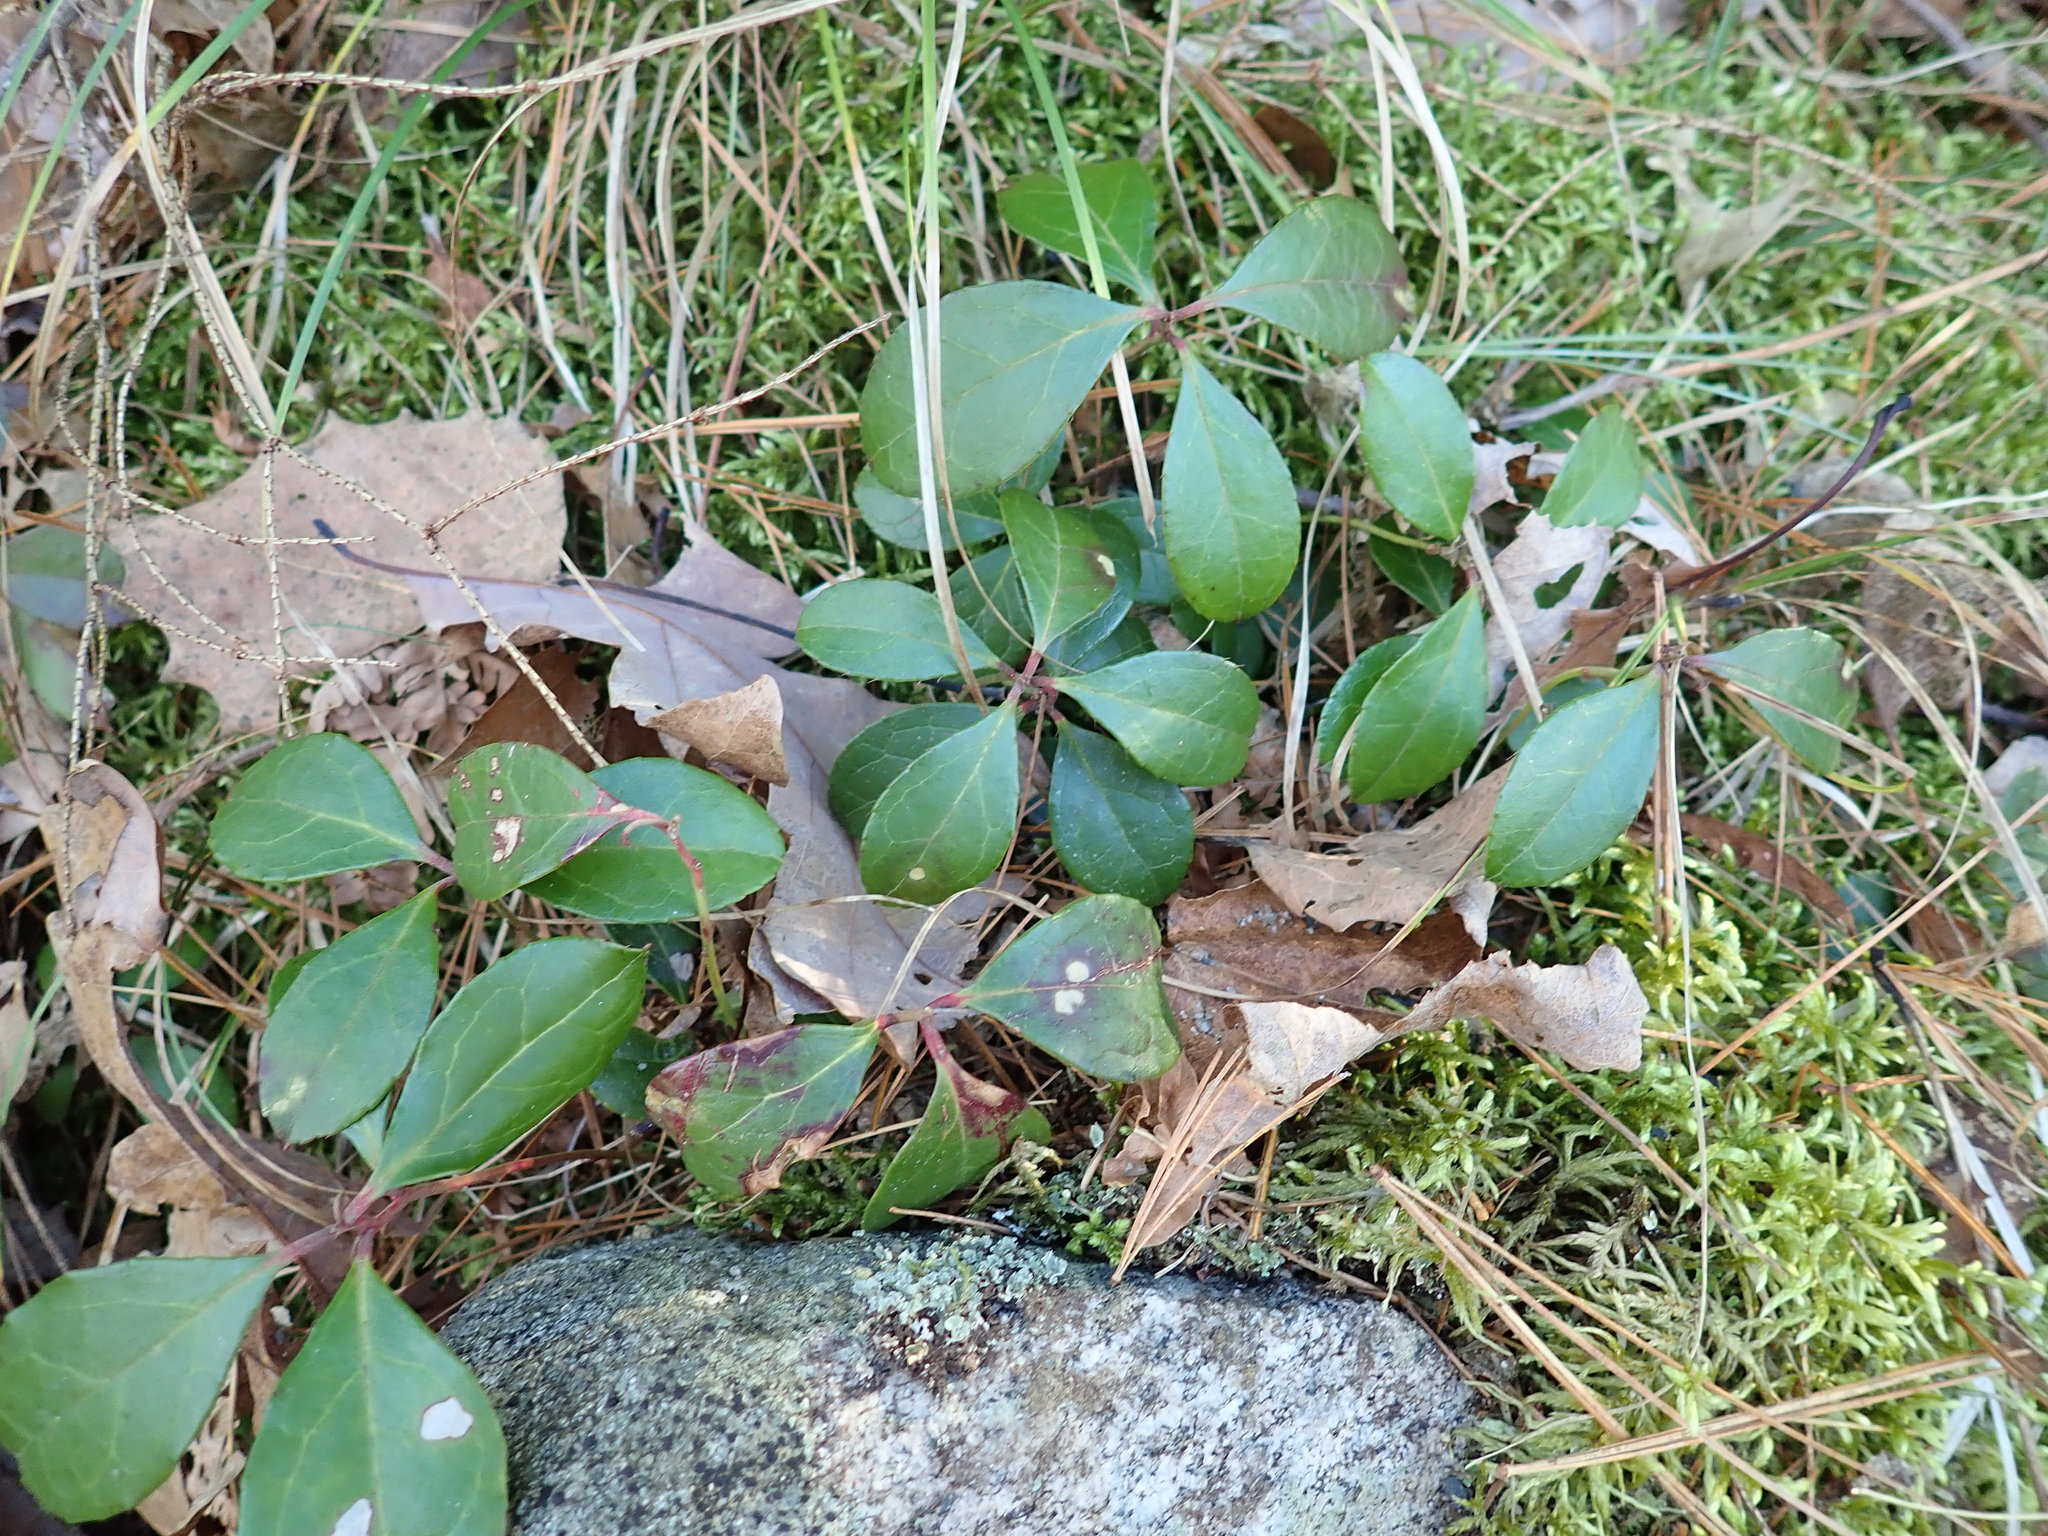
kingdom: Plantae
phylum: Tracheophyta
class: Magnoliopsida
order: Ericales
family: Ericaceae
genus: Gaultheria
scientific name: Gaultheria procumbens
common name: Checkerberry
